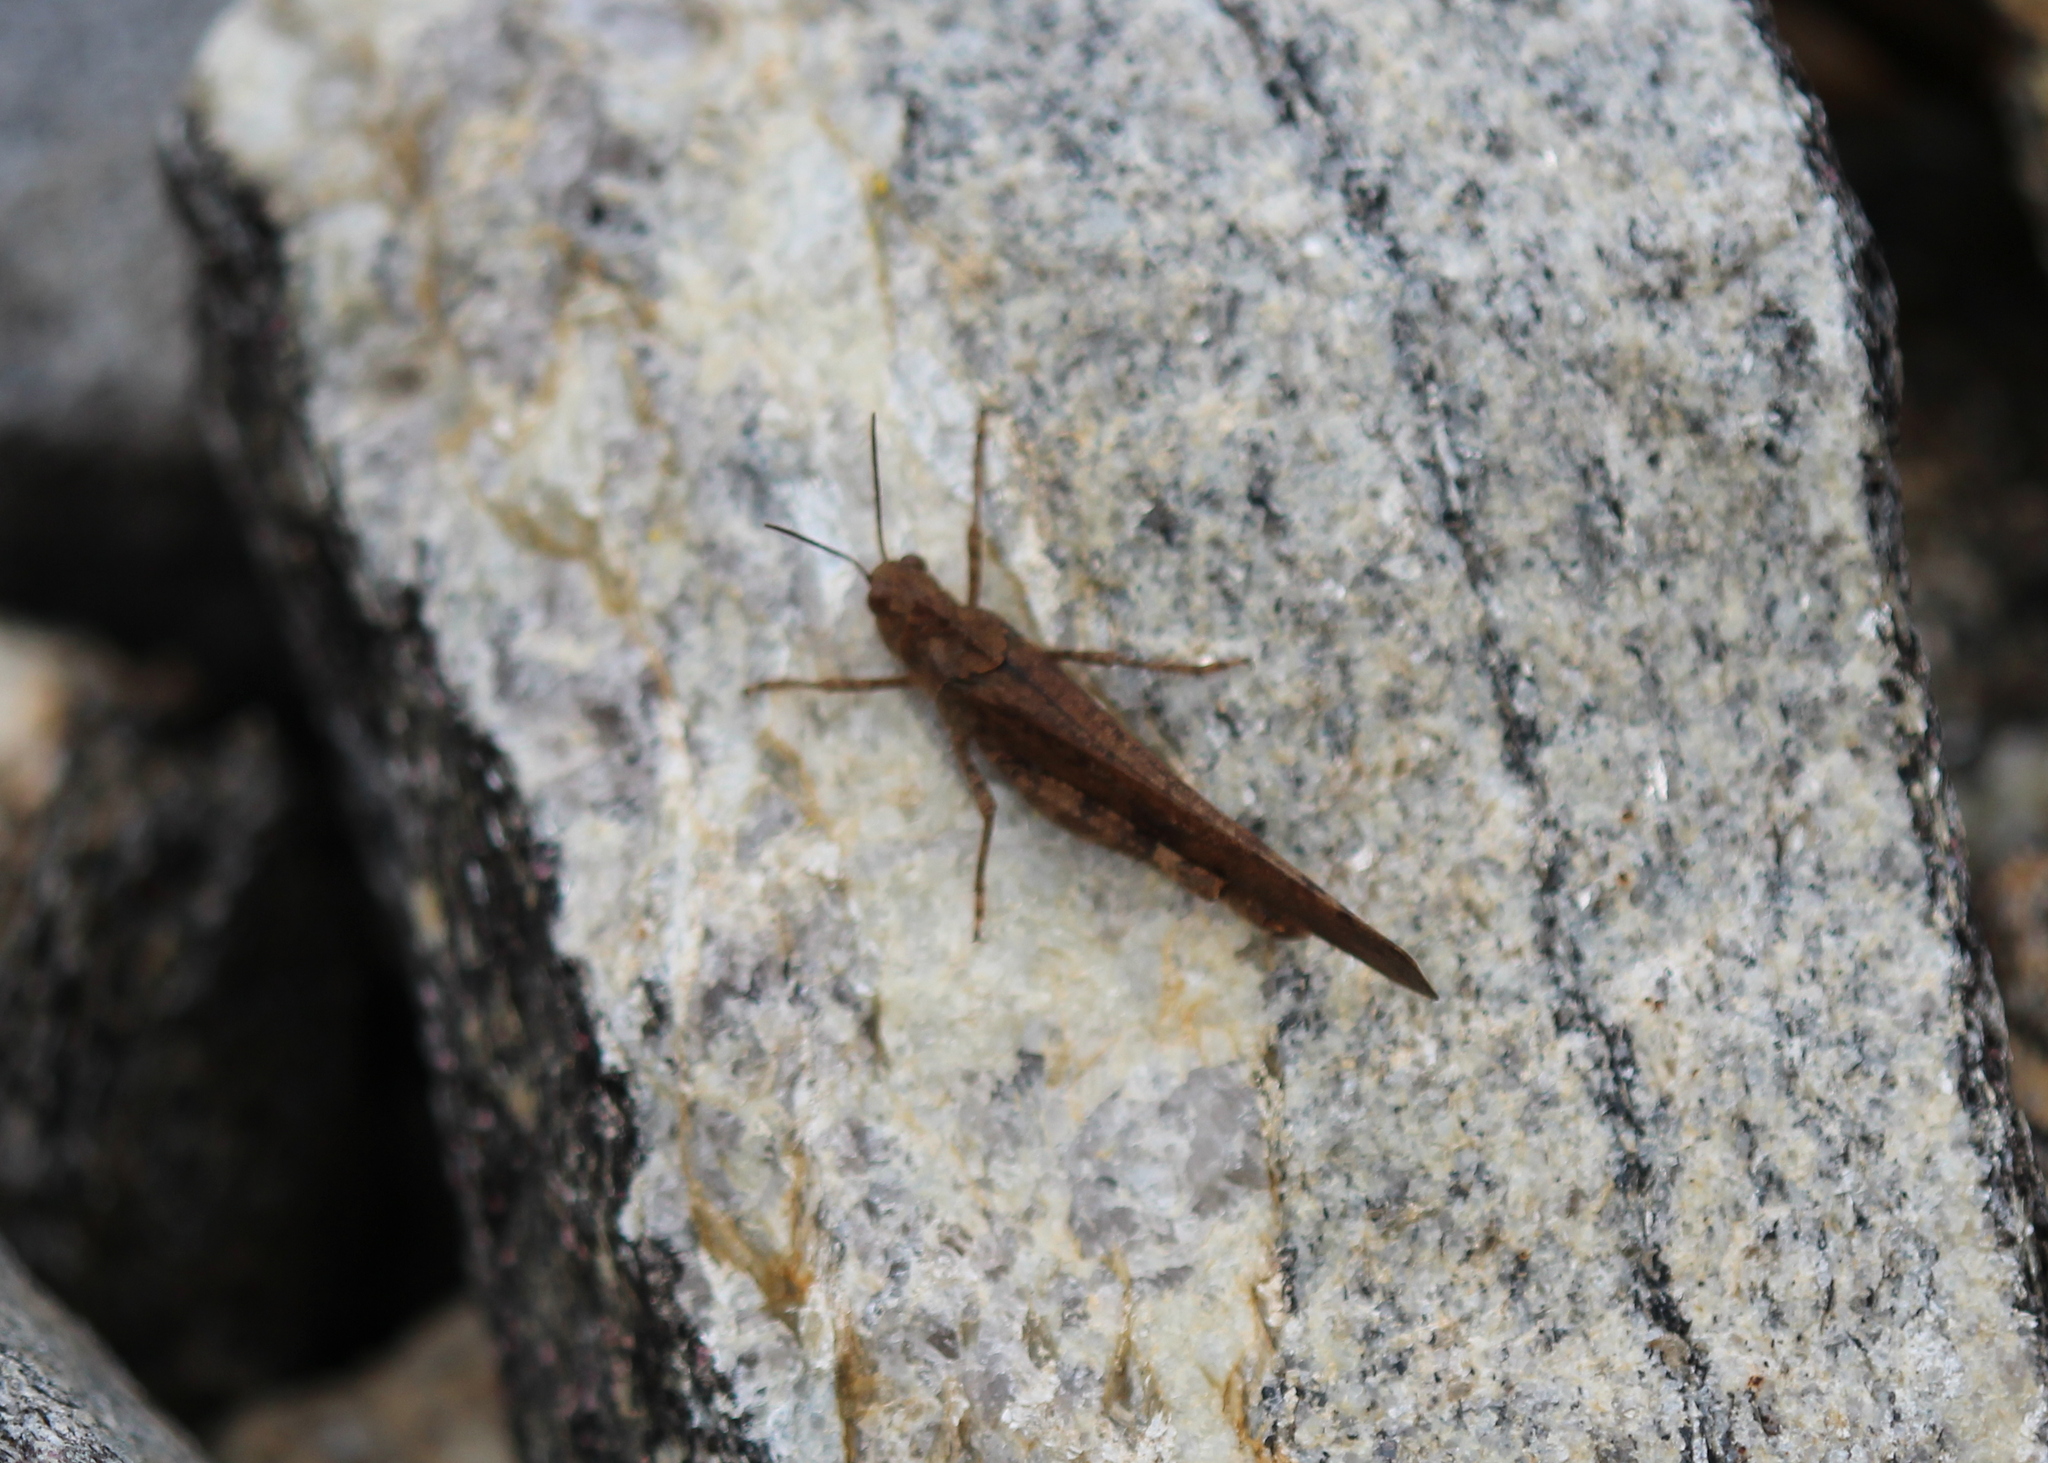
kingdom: Animalia
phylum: Arthropoda
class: Insecta
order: Orthoptera
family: Acrididae
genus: Dissosteira
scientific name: Dissosteira carolina
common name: Carolina grasshopper
